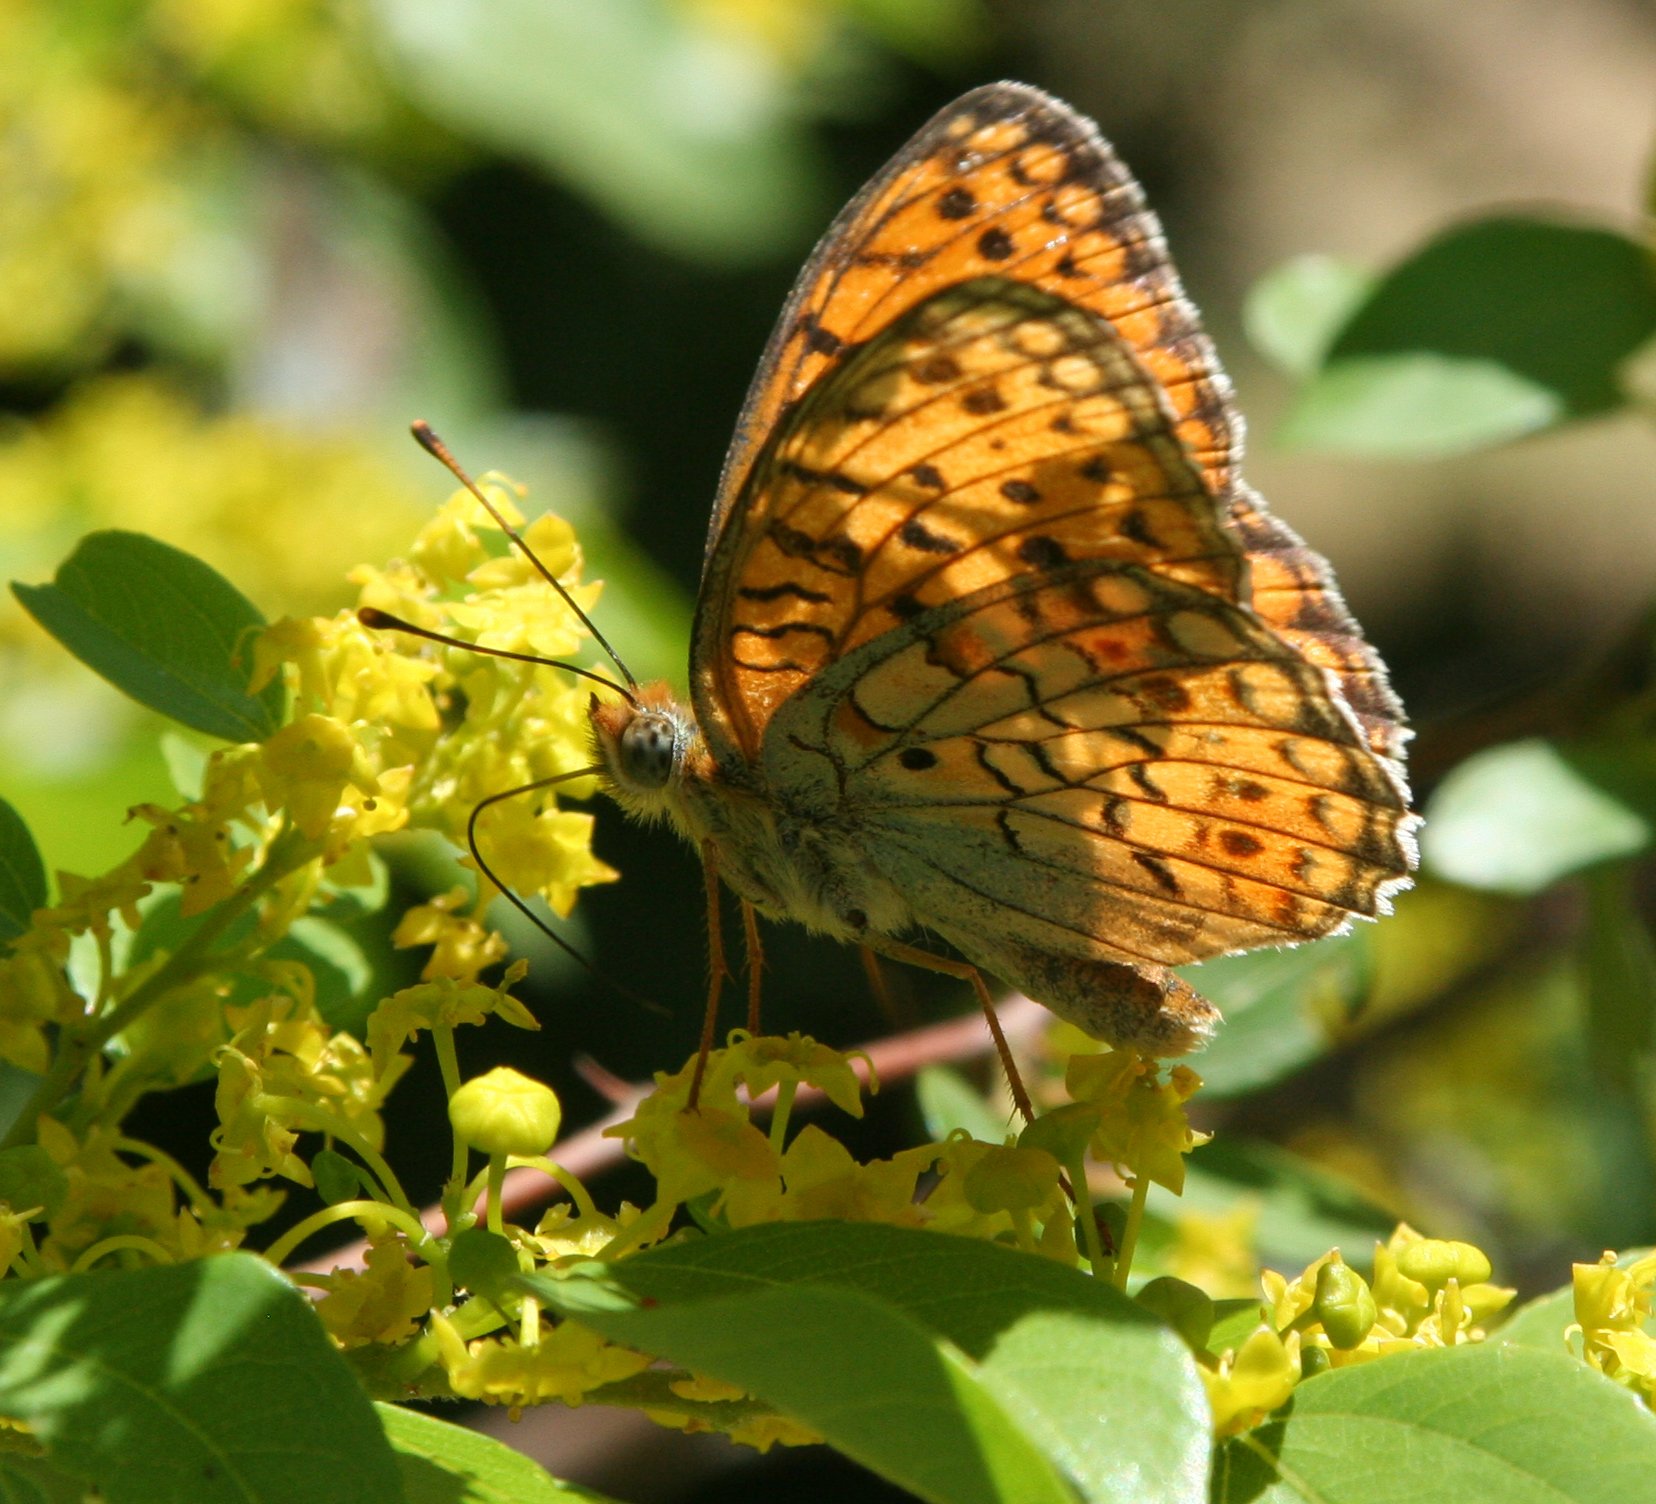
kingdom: Animalia
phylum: Arthropoda
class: Insecta
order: Lepidoptera
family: Nymphalidae
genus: Fabriciana
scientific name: Fabriciana niobe
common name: Niobe fritillary
